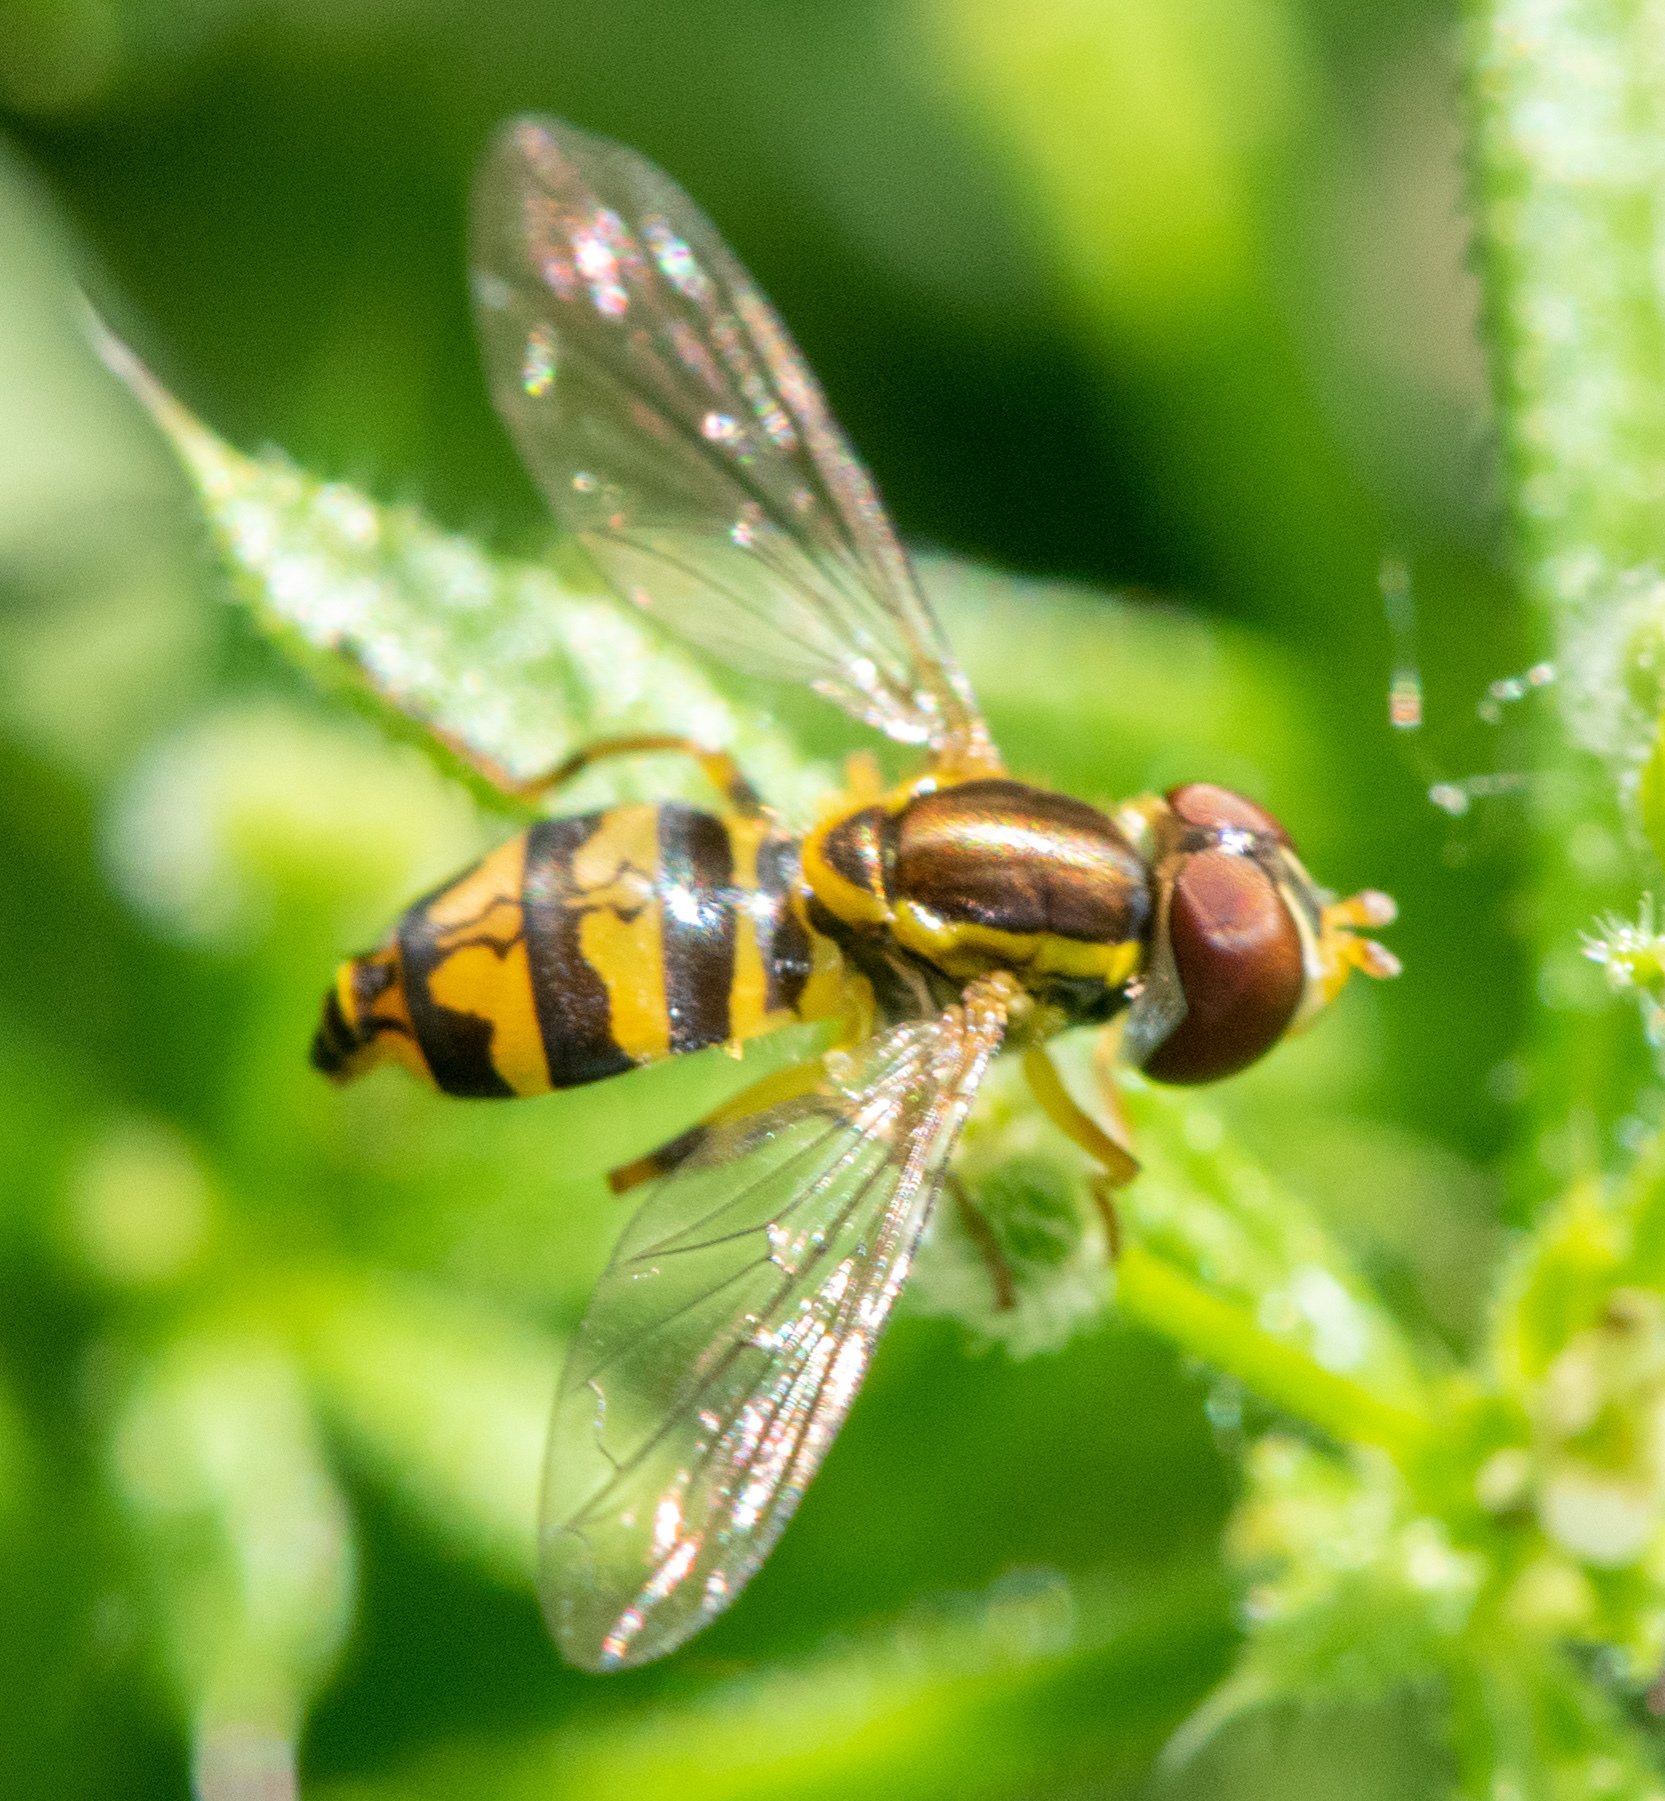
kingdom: Animalia
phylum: Arthropoda
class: Insecta
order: Diptera
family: Syrphidae
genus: Toxomerus
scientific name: Toxomerus occidentalis
